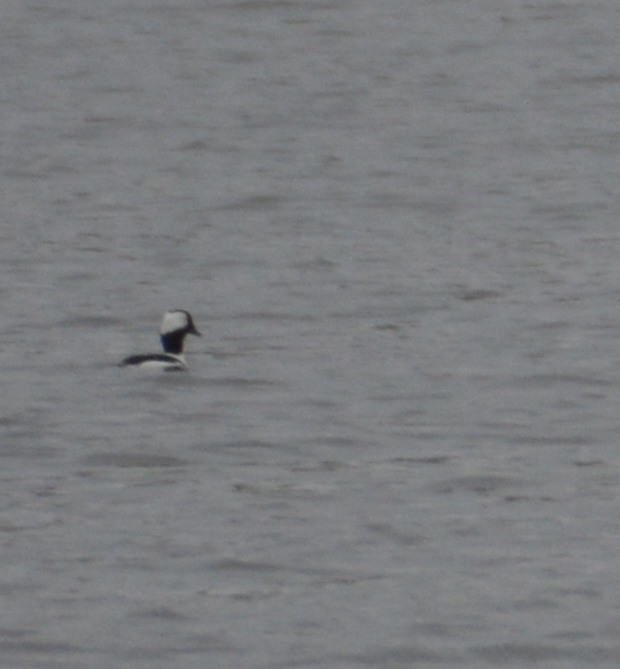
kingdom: Animalia
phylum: Chordata
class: Aves
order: Anseriformes
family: Anatidae
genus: Bucephala
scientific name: Bucephala albeola
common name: Bufflehead
